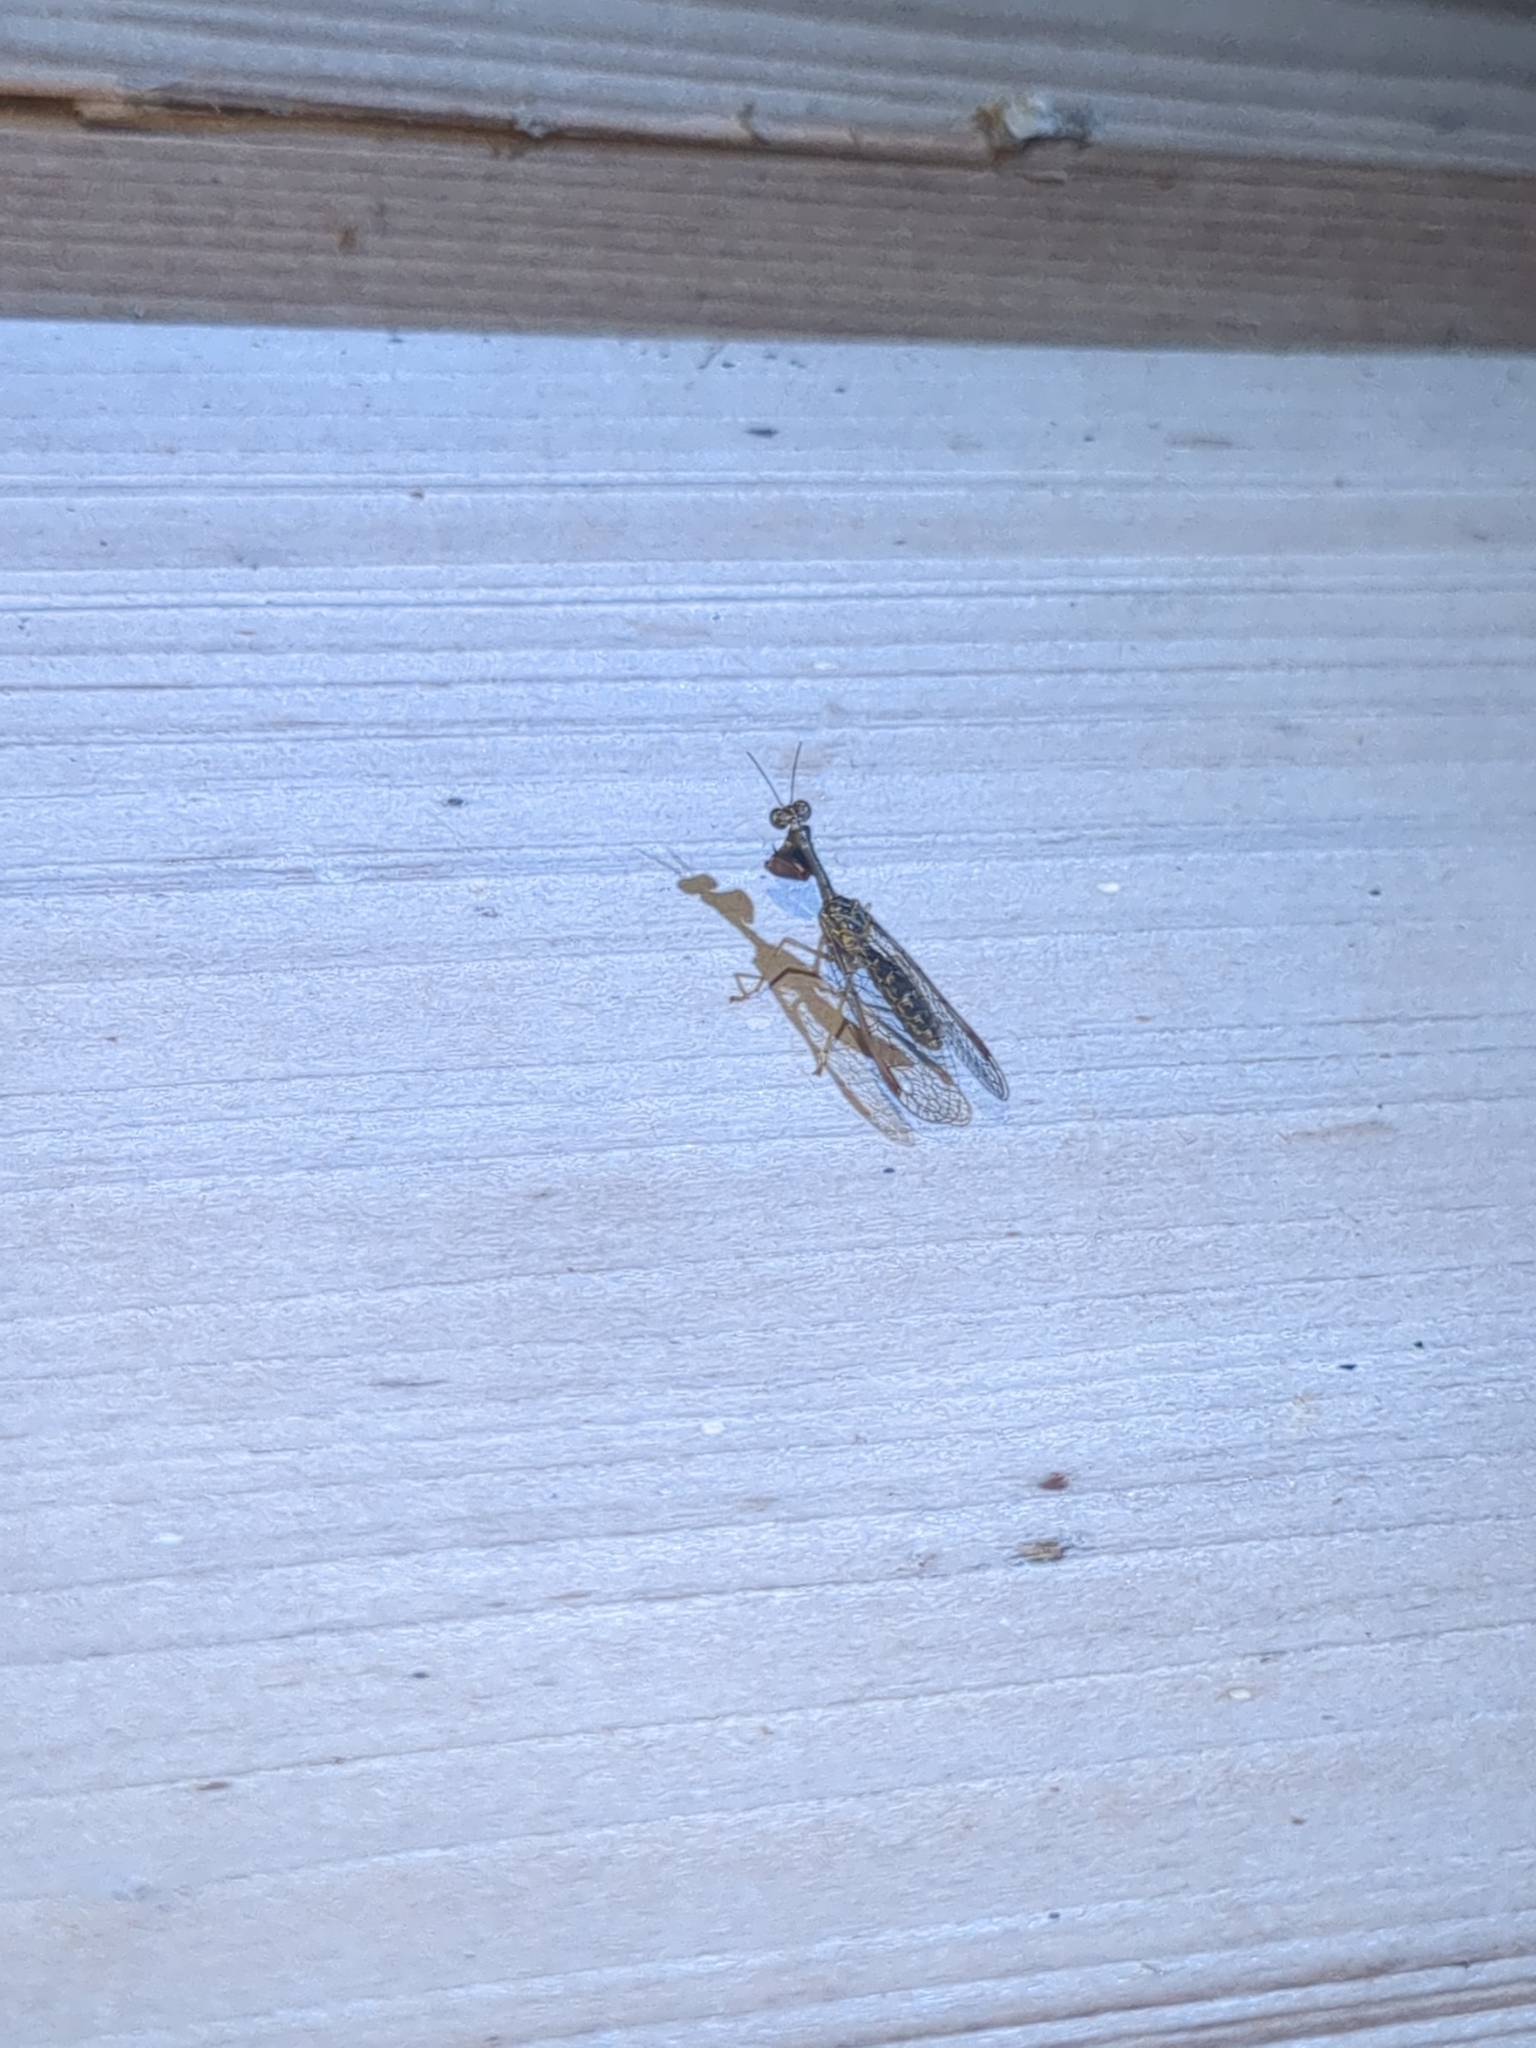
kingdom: Animalia
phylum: Arthropoda
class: Insecta
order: Neuroptera
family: Mantispidae
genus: Dicromantispa
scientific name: Dicromantispa sayi
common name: Say's mantidfly
